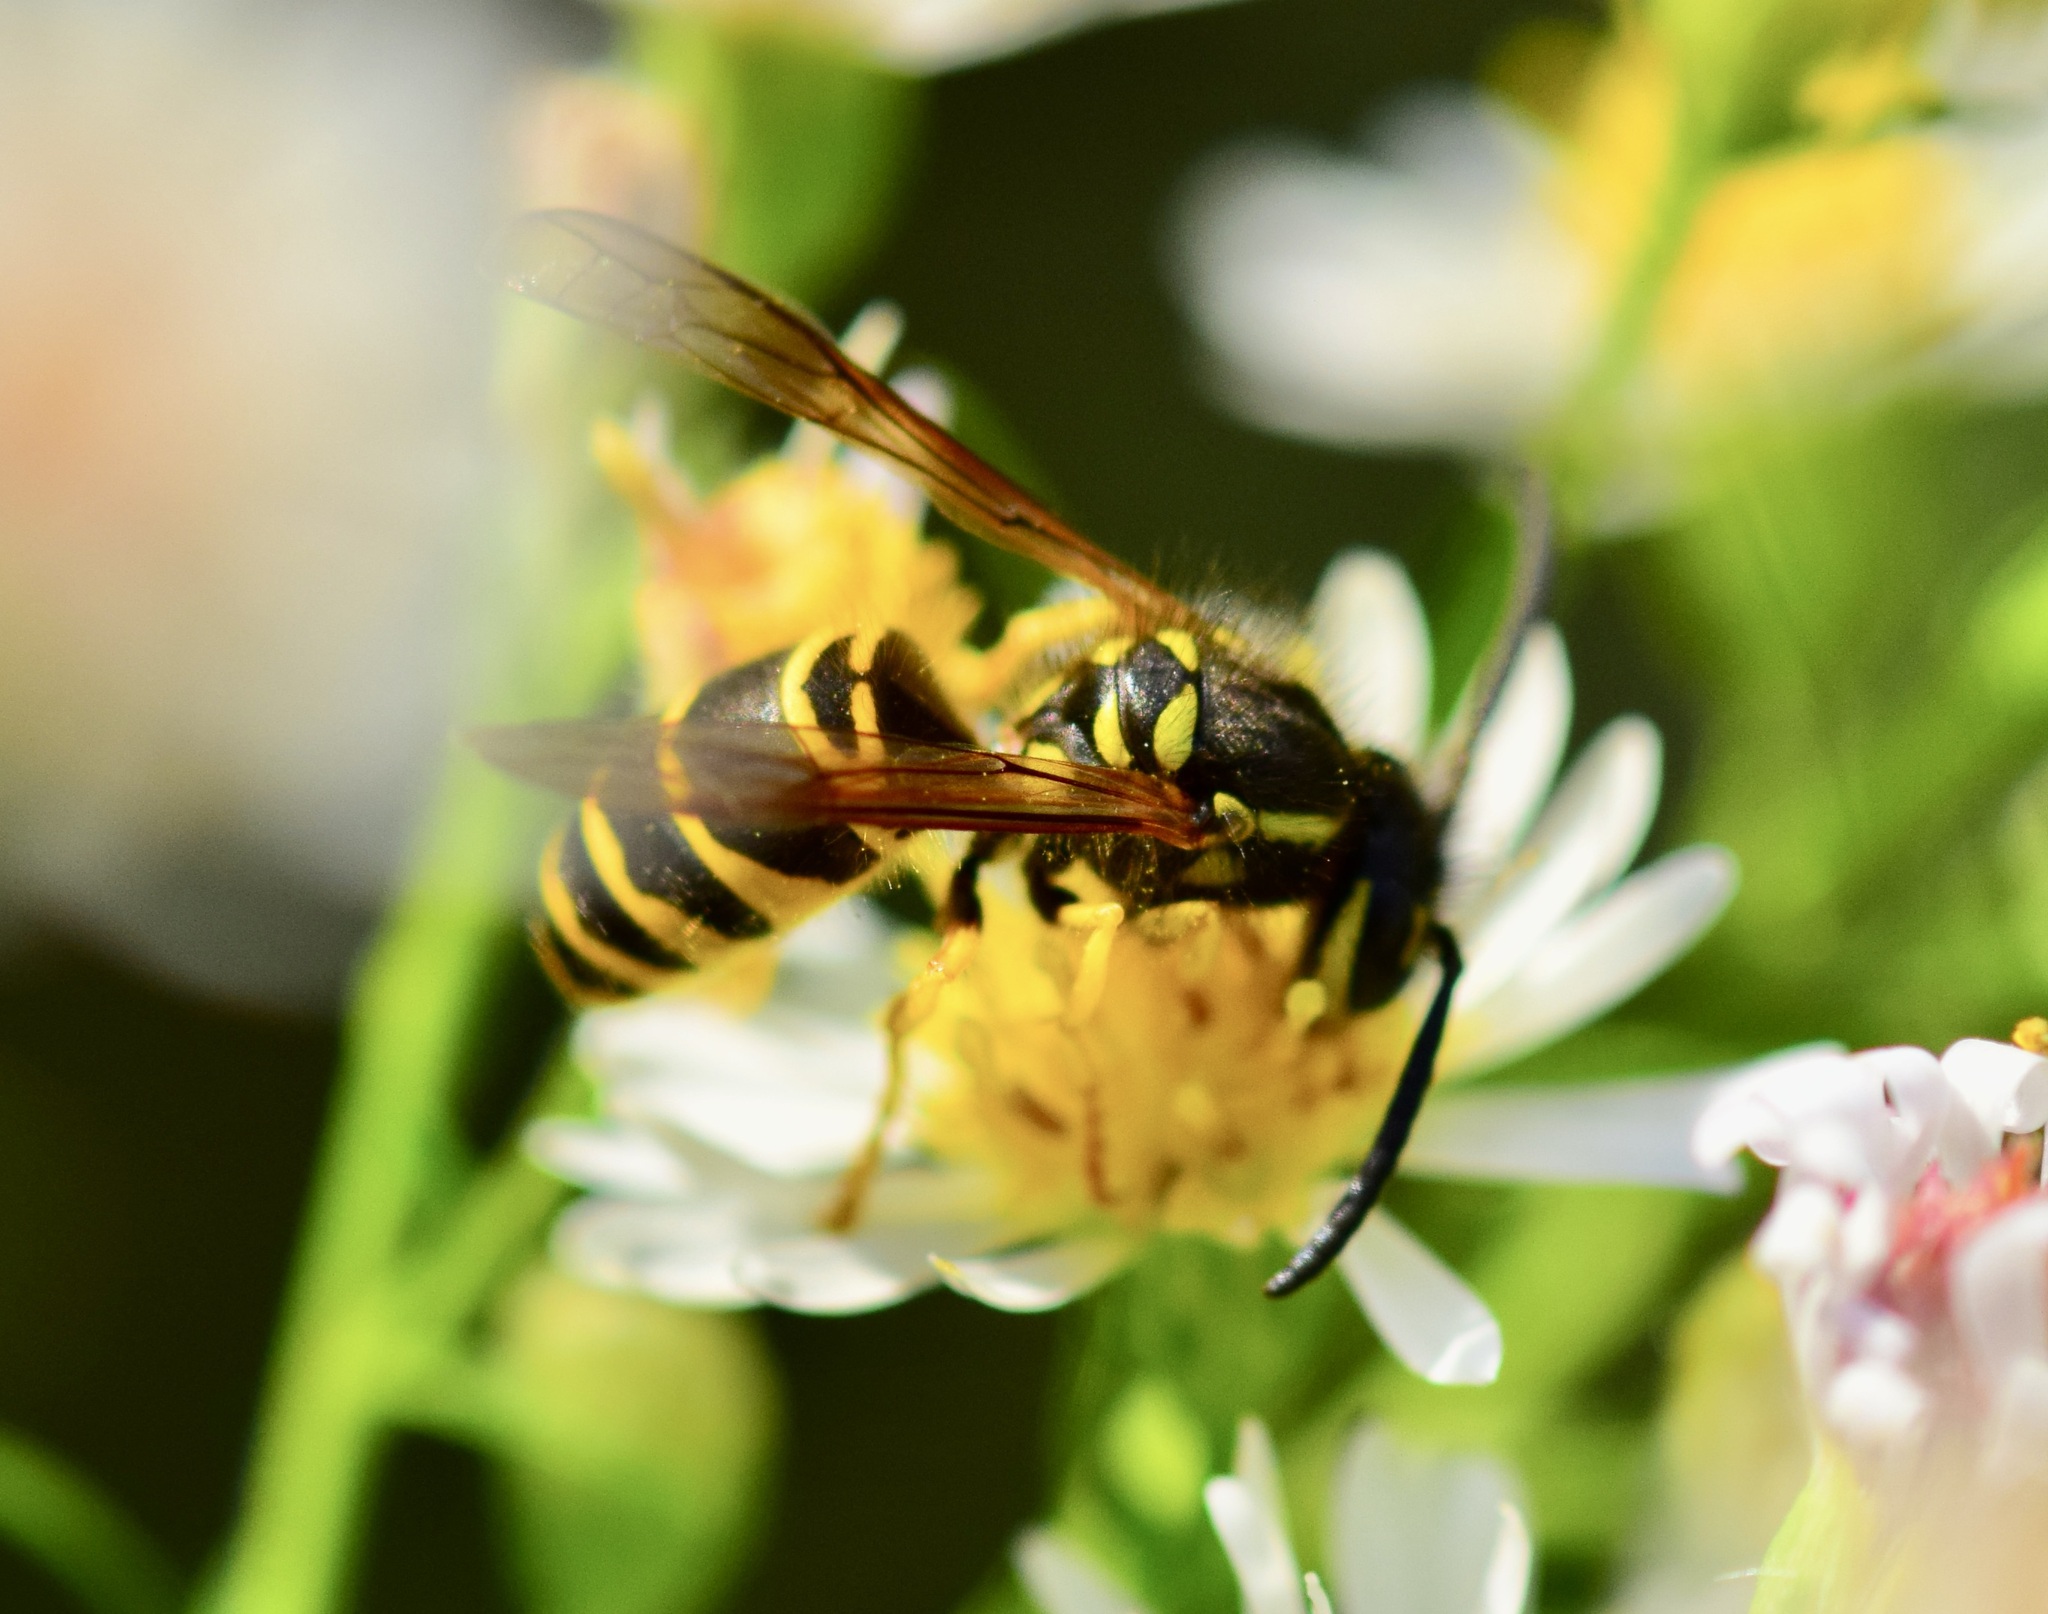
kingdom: Animalia
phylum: Arthropoda
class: Insecta
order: Hymenoptera
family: Vespidae
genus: Vespula
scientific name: Vespula maculifrons
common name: Eastern yellowjacket
